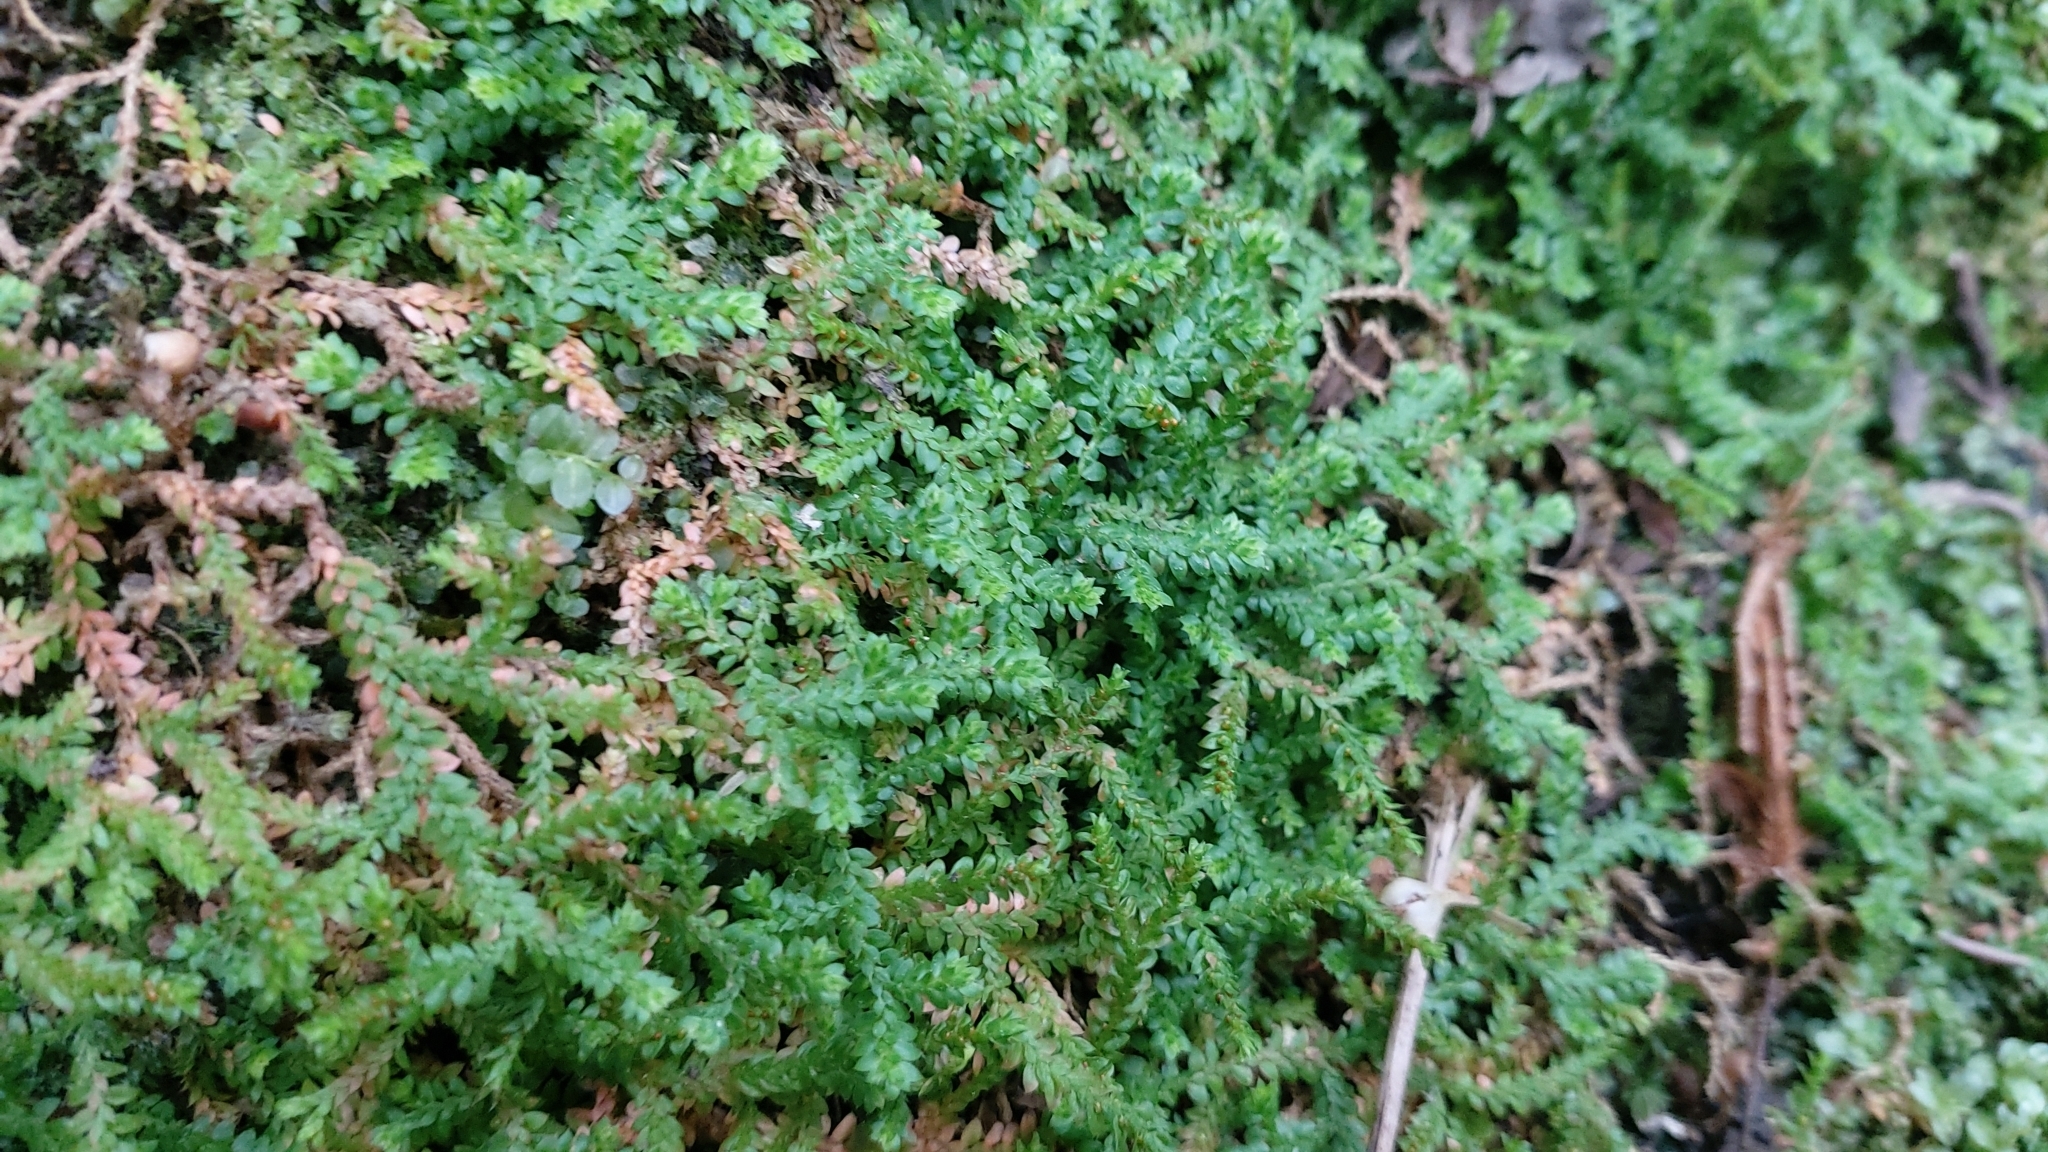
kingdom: Plantae
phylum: Tracheophyta
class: Lycopodiopsida
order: Selaginellales
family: Selaginellaceae
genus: Selaginella
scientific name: Selaginella denticulata
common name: Toothed-leaved clubmoss
